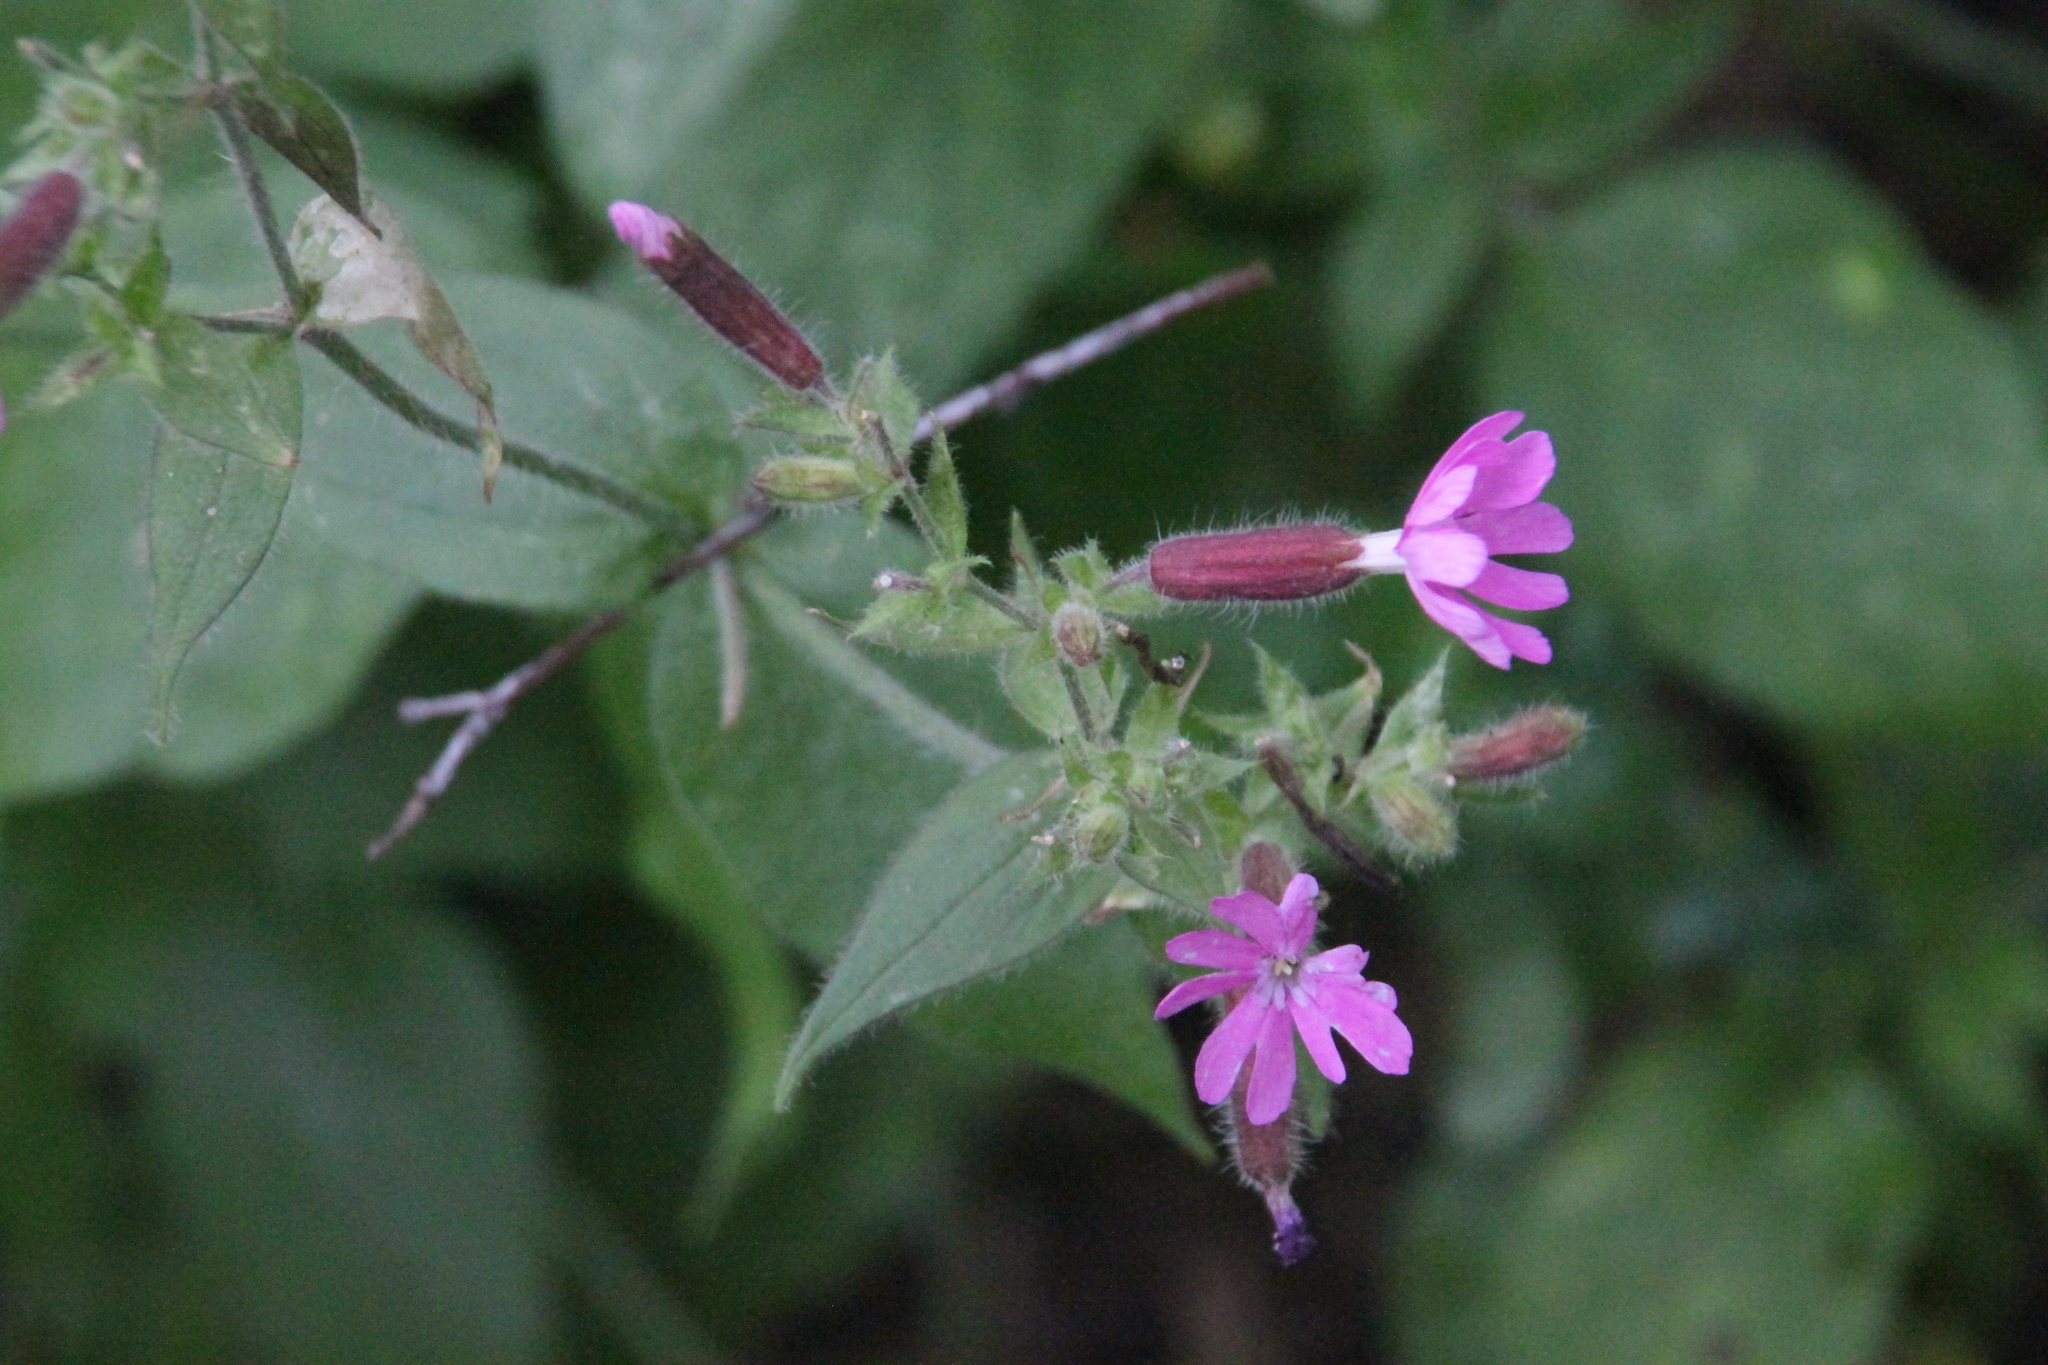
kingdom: Plantae
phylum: Tracheophyta
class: Magnoliopsida
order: Caryophyllales
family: Caryophyllaceae
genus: Silene
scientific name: Silene dioica
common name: Red campion
